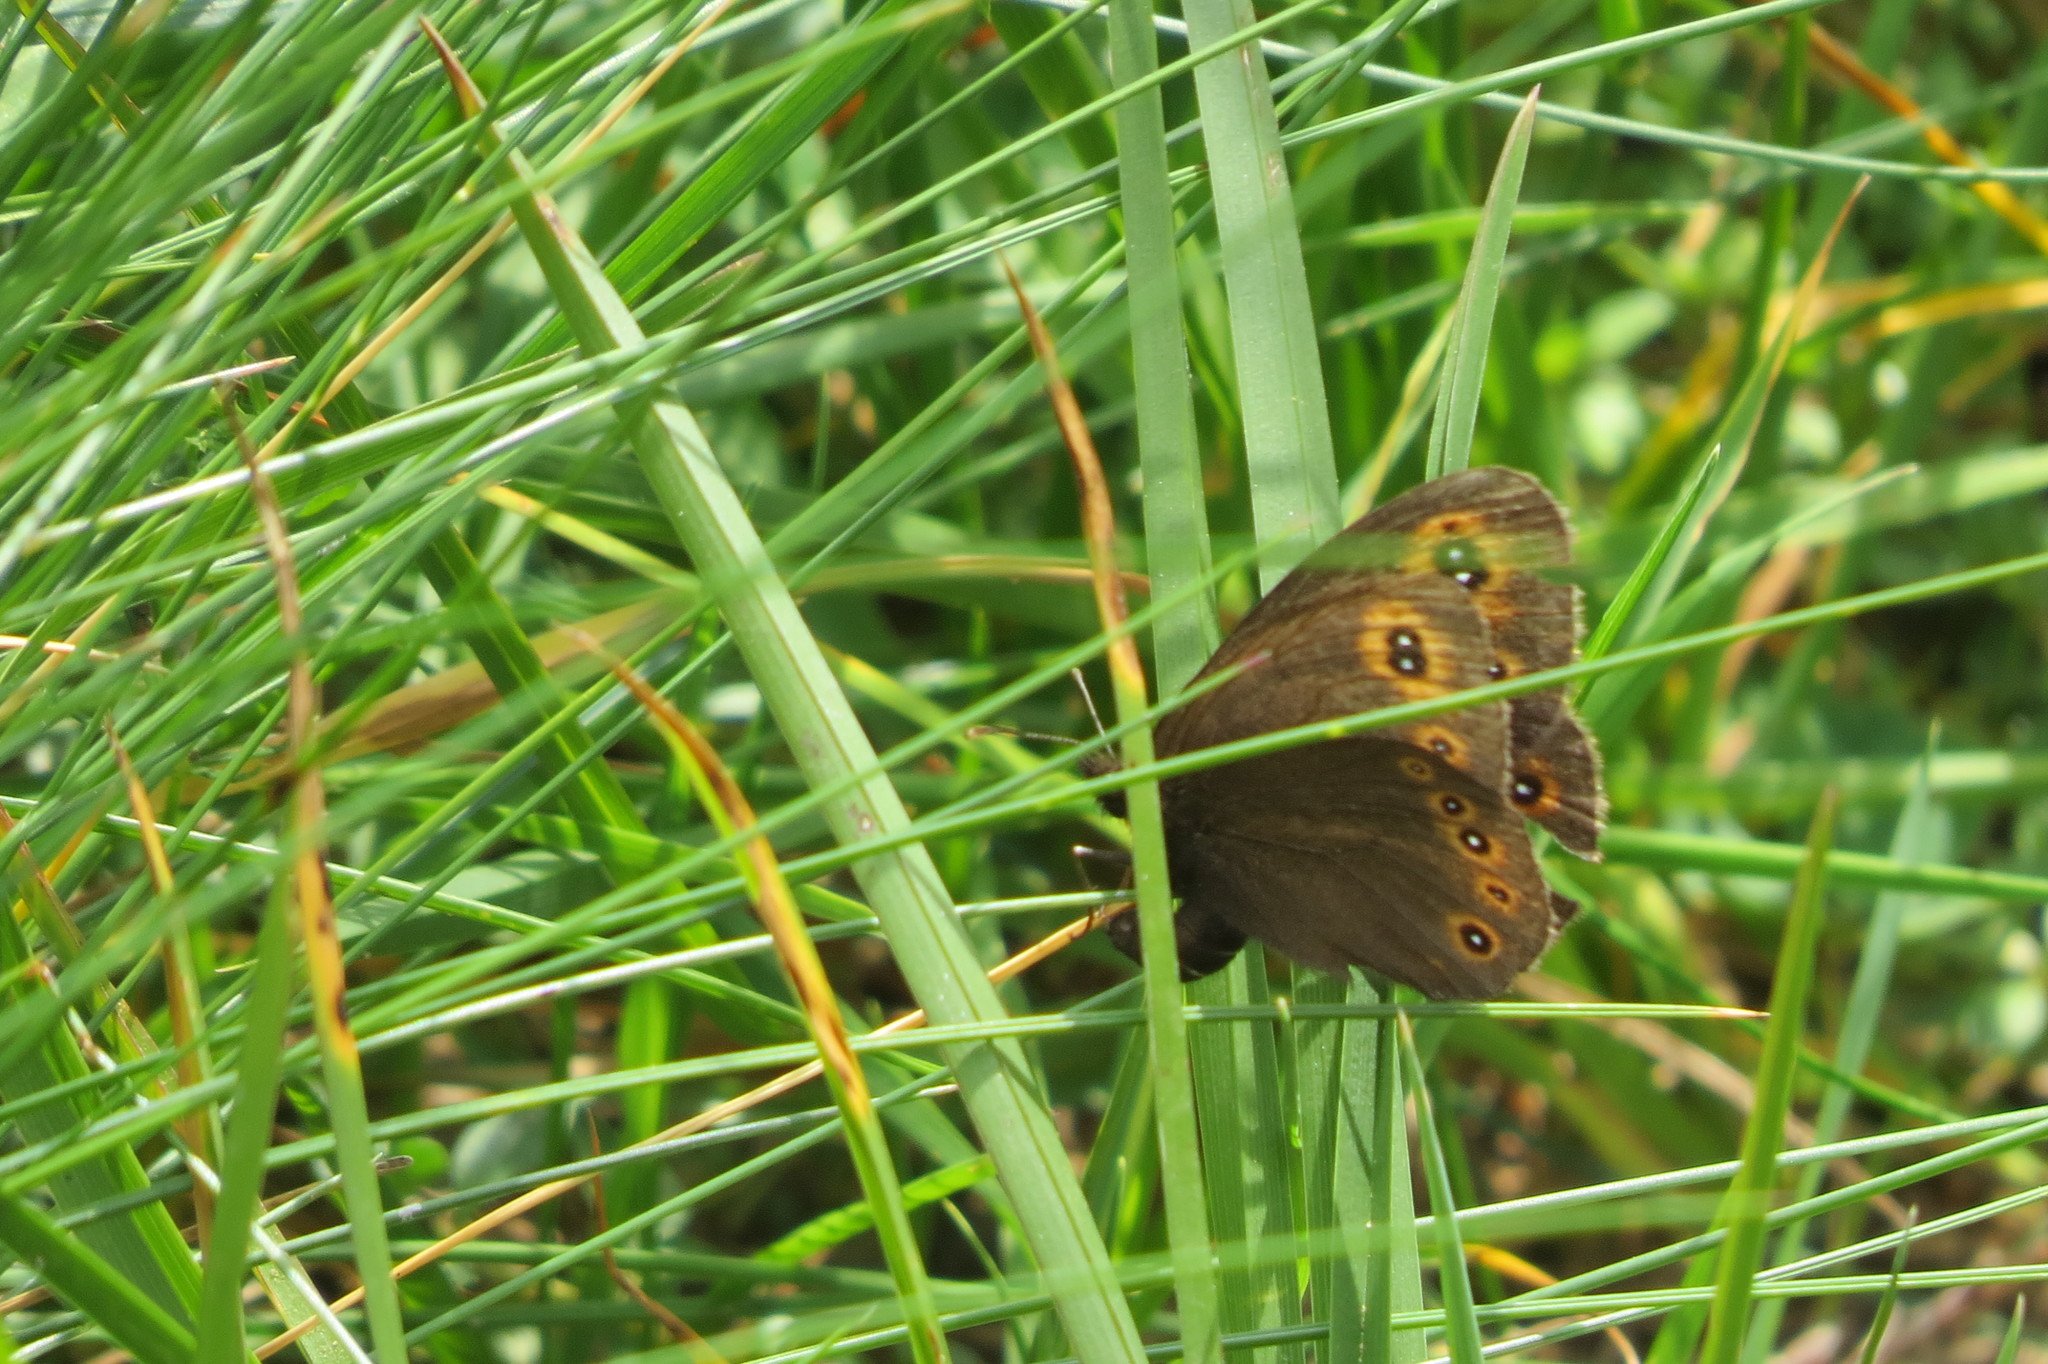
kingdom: Animalia
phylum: Arthropoda
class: Insecta
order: Lepidoptera
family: Nymphalidae
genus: Erebia
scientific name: Erebia medusa
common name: Woodland ringlet
